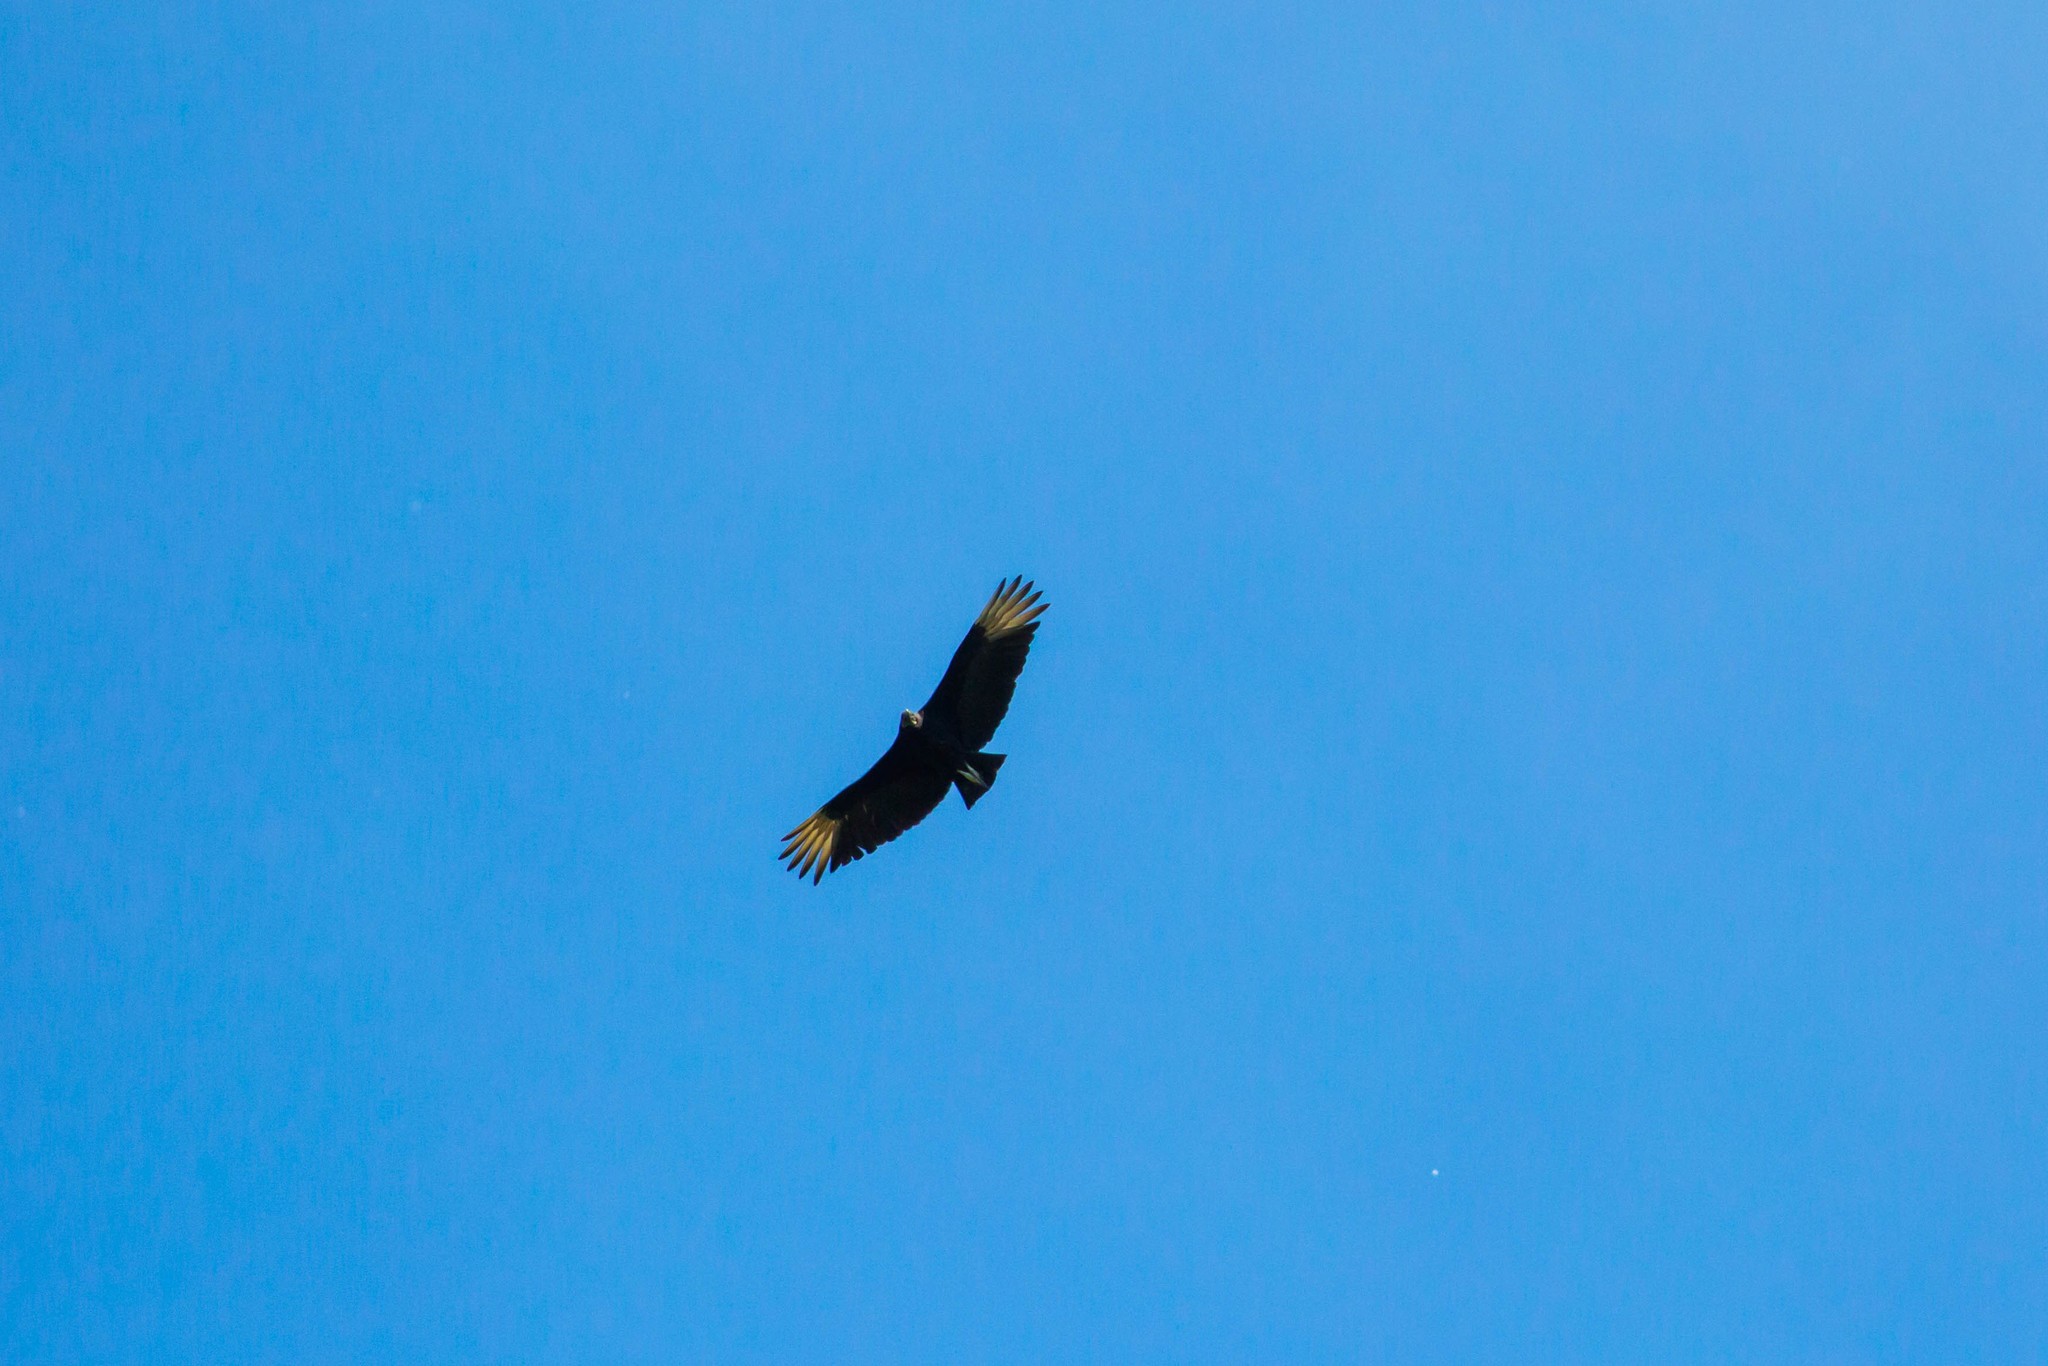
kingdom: Animalia
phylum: Chordata
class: Aves
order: Accipitriformes
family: Cathartidae
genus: Coragyps
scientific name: Coragyps atratus
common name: Black vulture
